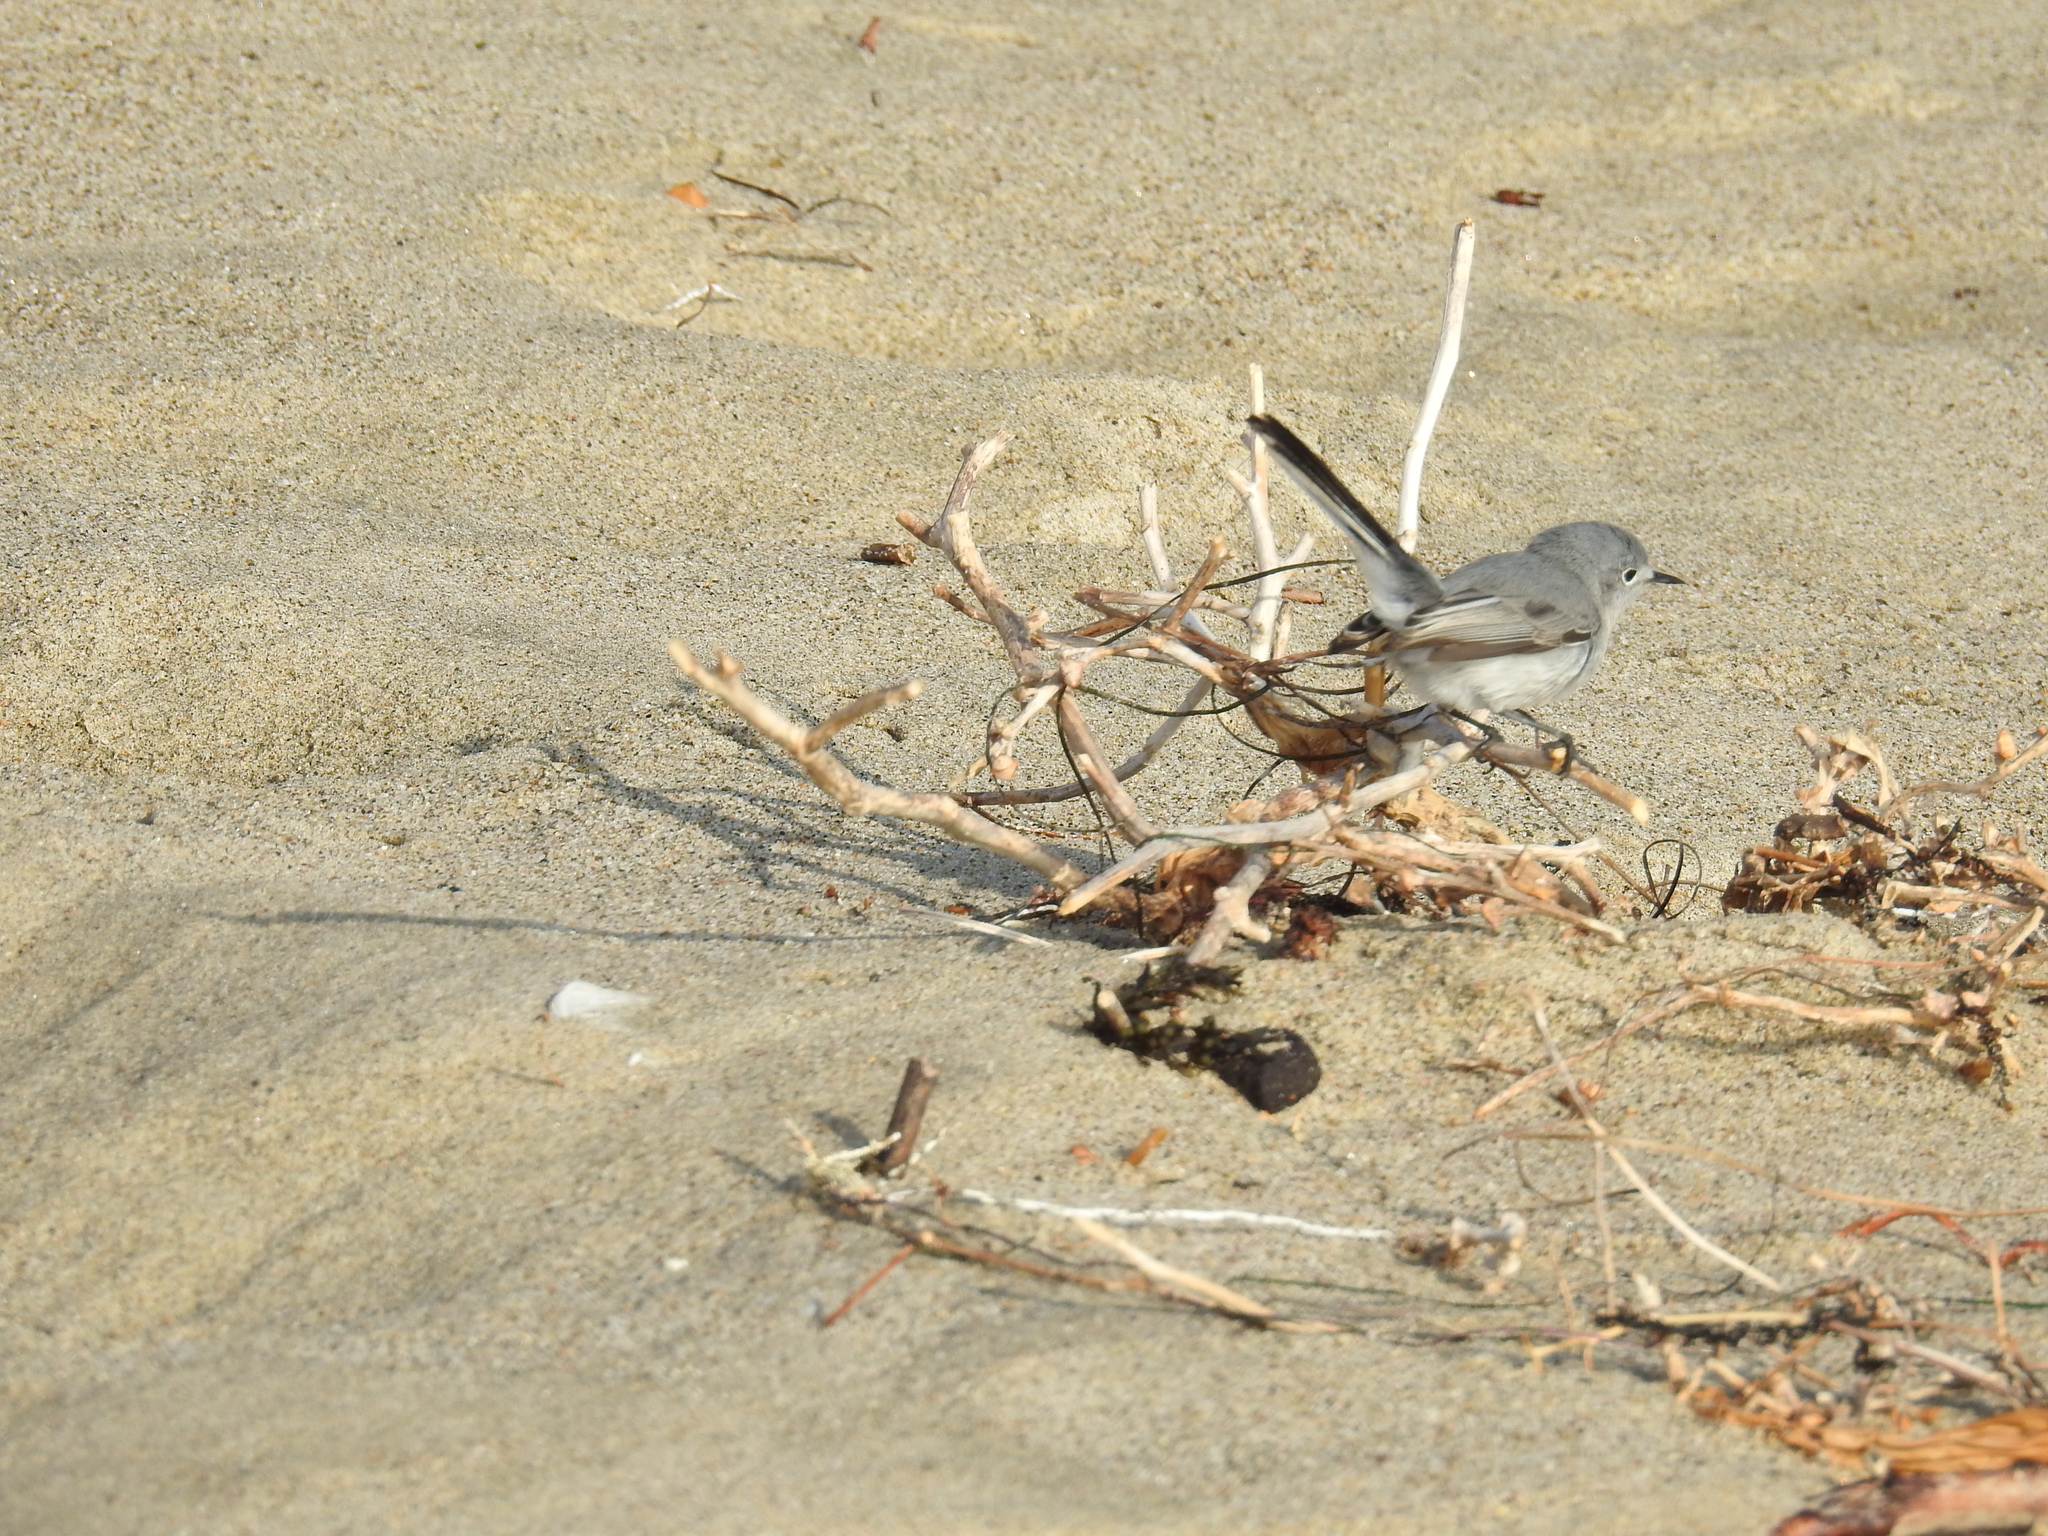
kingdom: Animalia
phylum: Chordata
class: Aves
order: Passeriformes
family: Polioptilidae
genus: Polioptila
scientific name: Polioptila caerulea
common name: Blue-gray gnatcatcher
